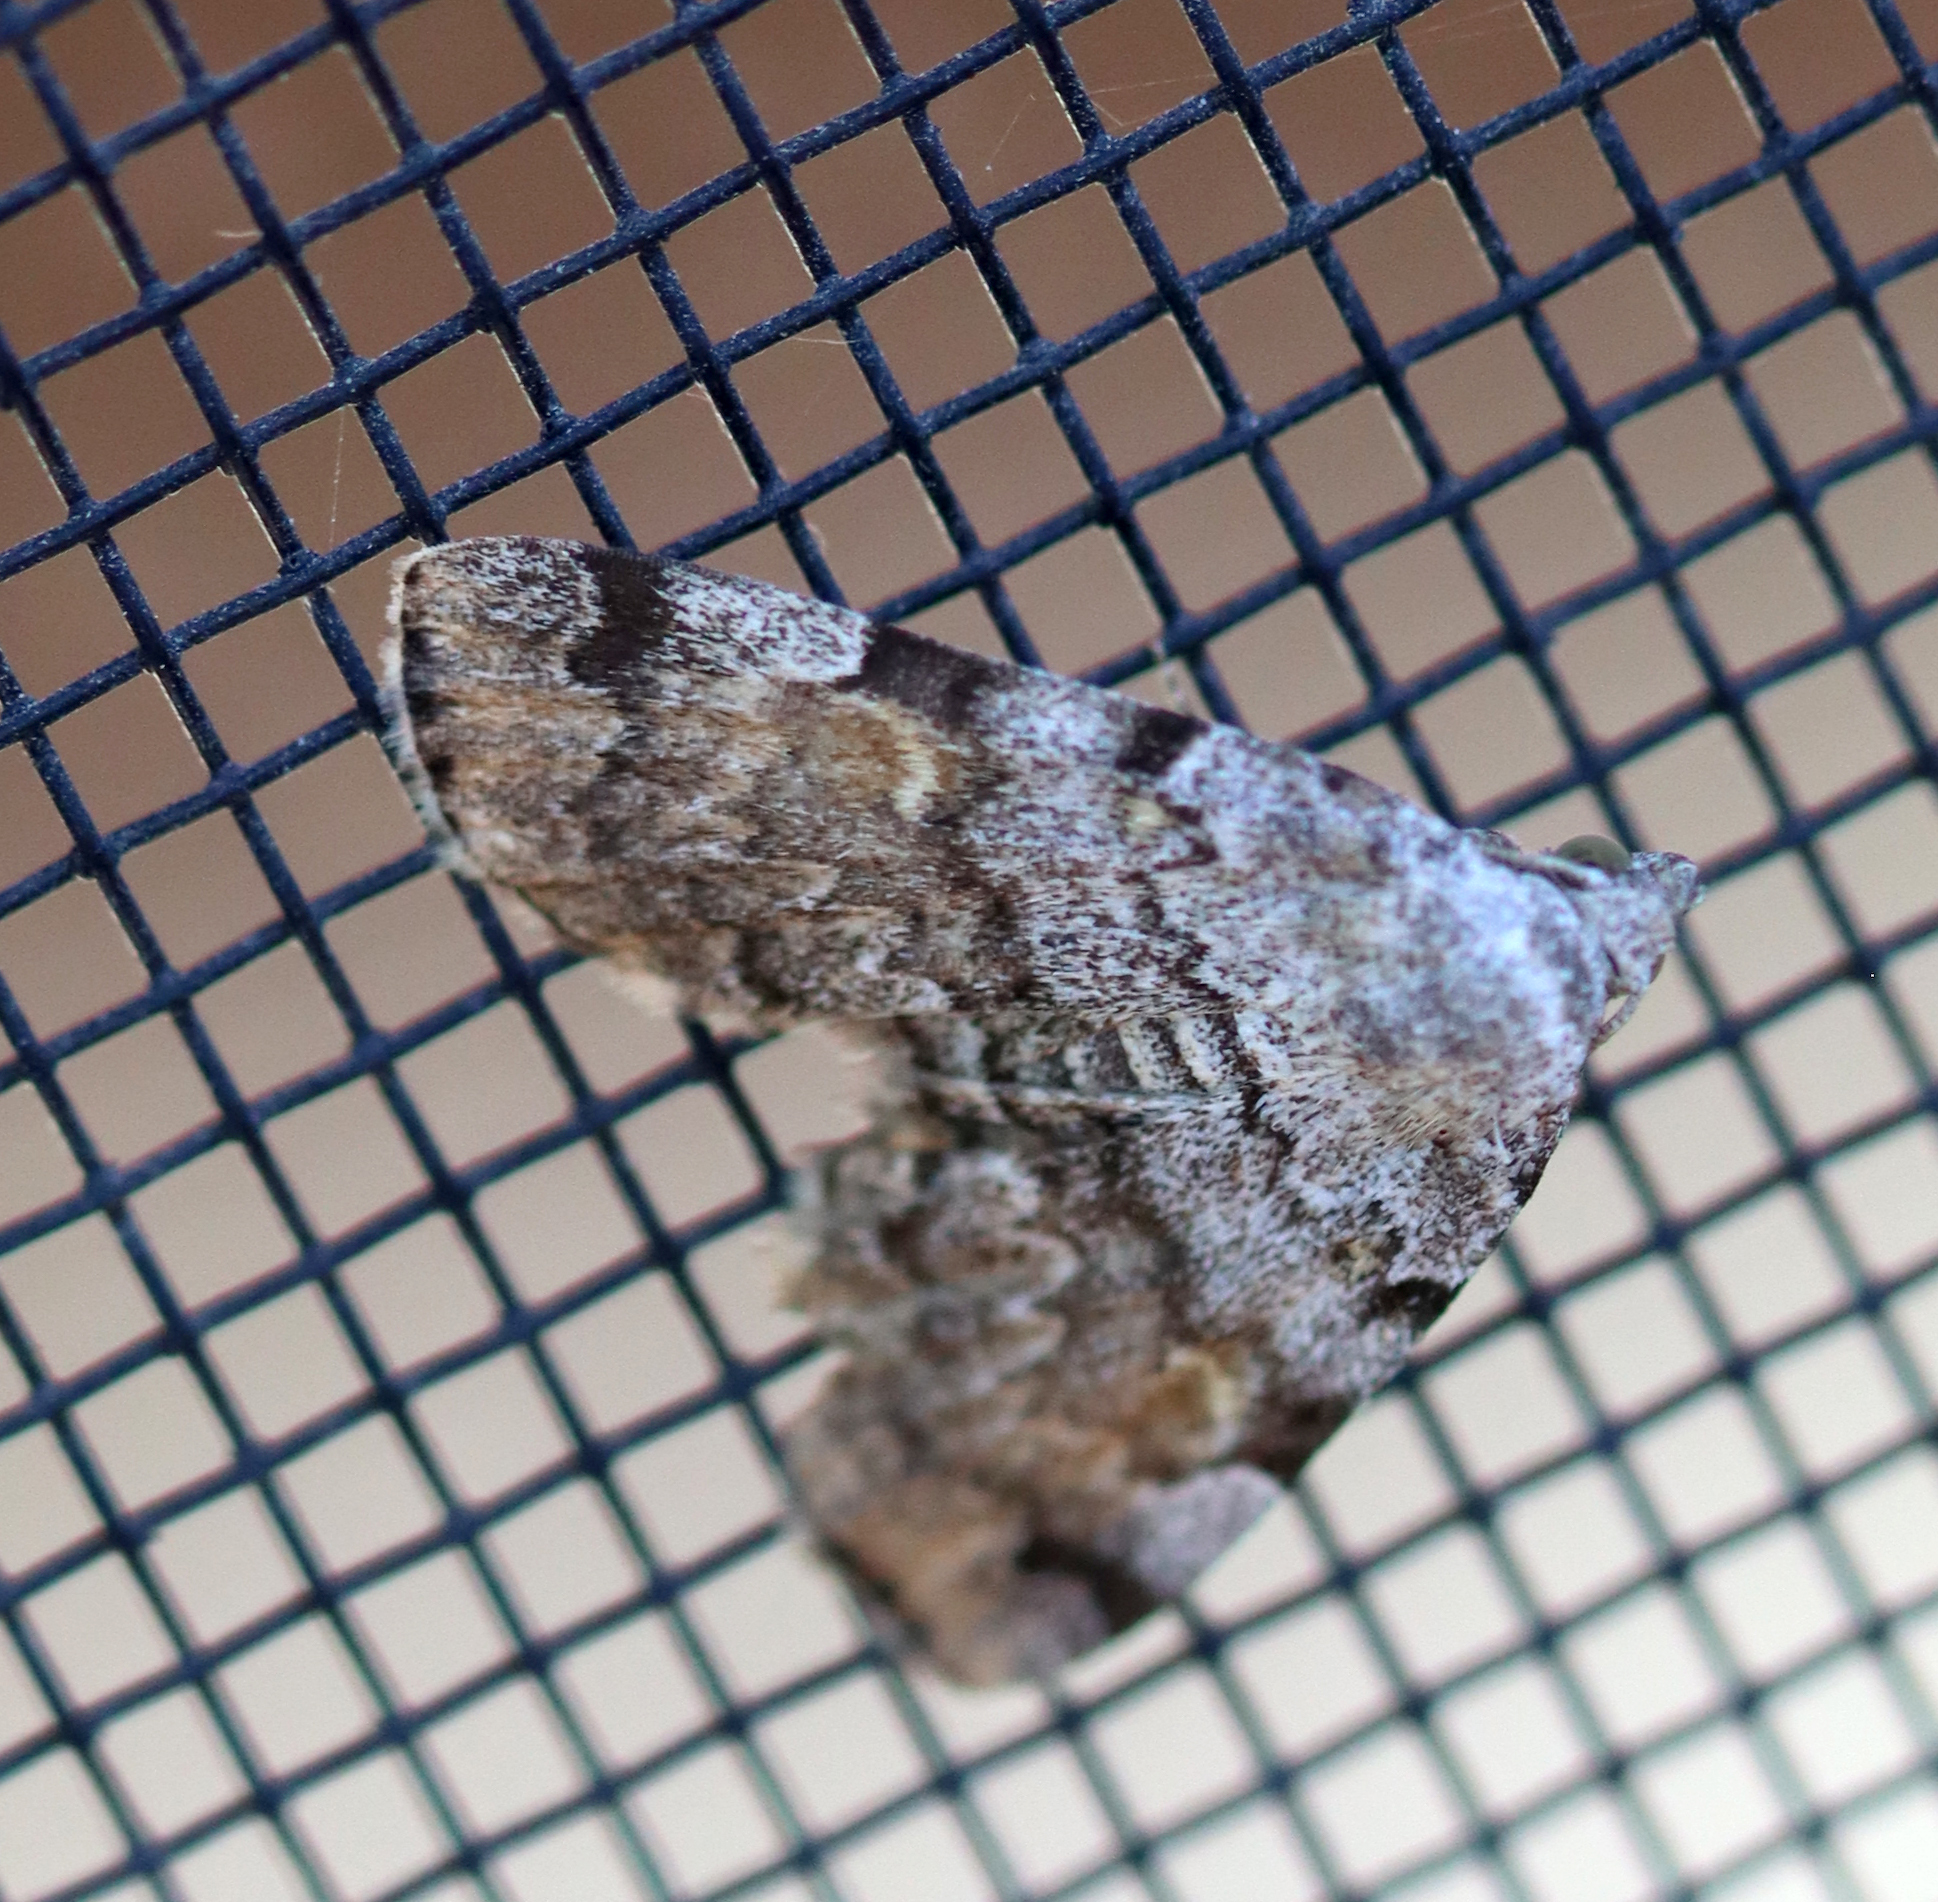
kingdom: Animalia
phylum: Arthropoda
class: Insecta
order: Lepidoptera
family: Erebidae
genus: Idia
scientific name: Idia americalis
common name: American idia moth
